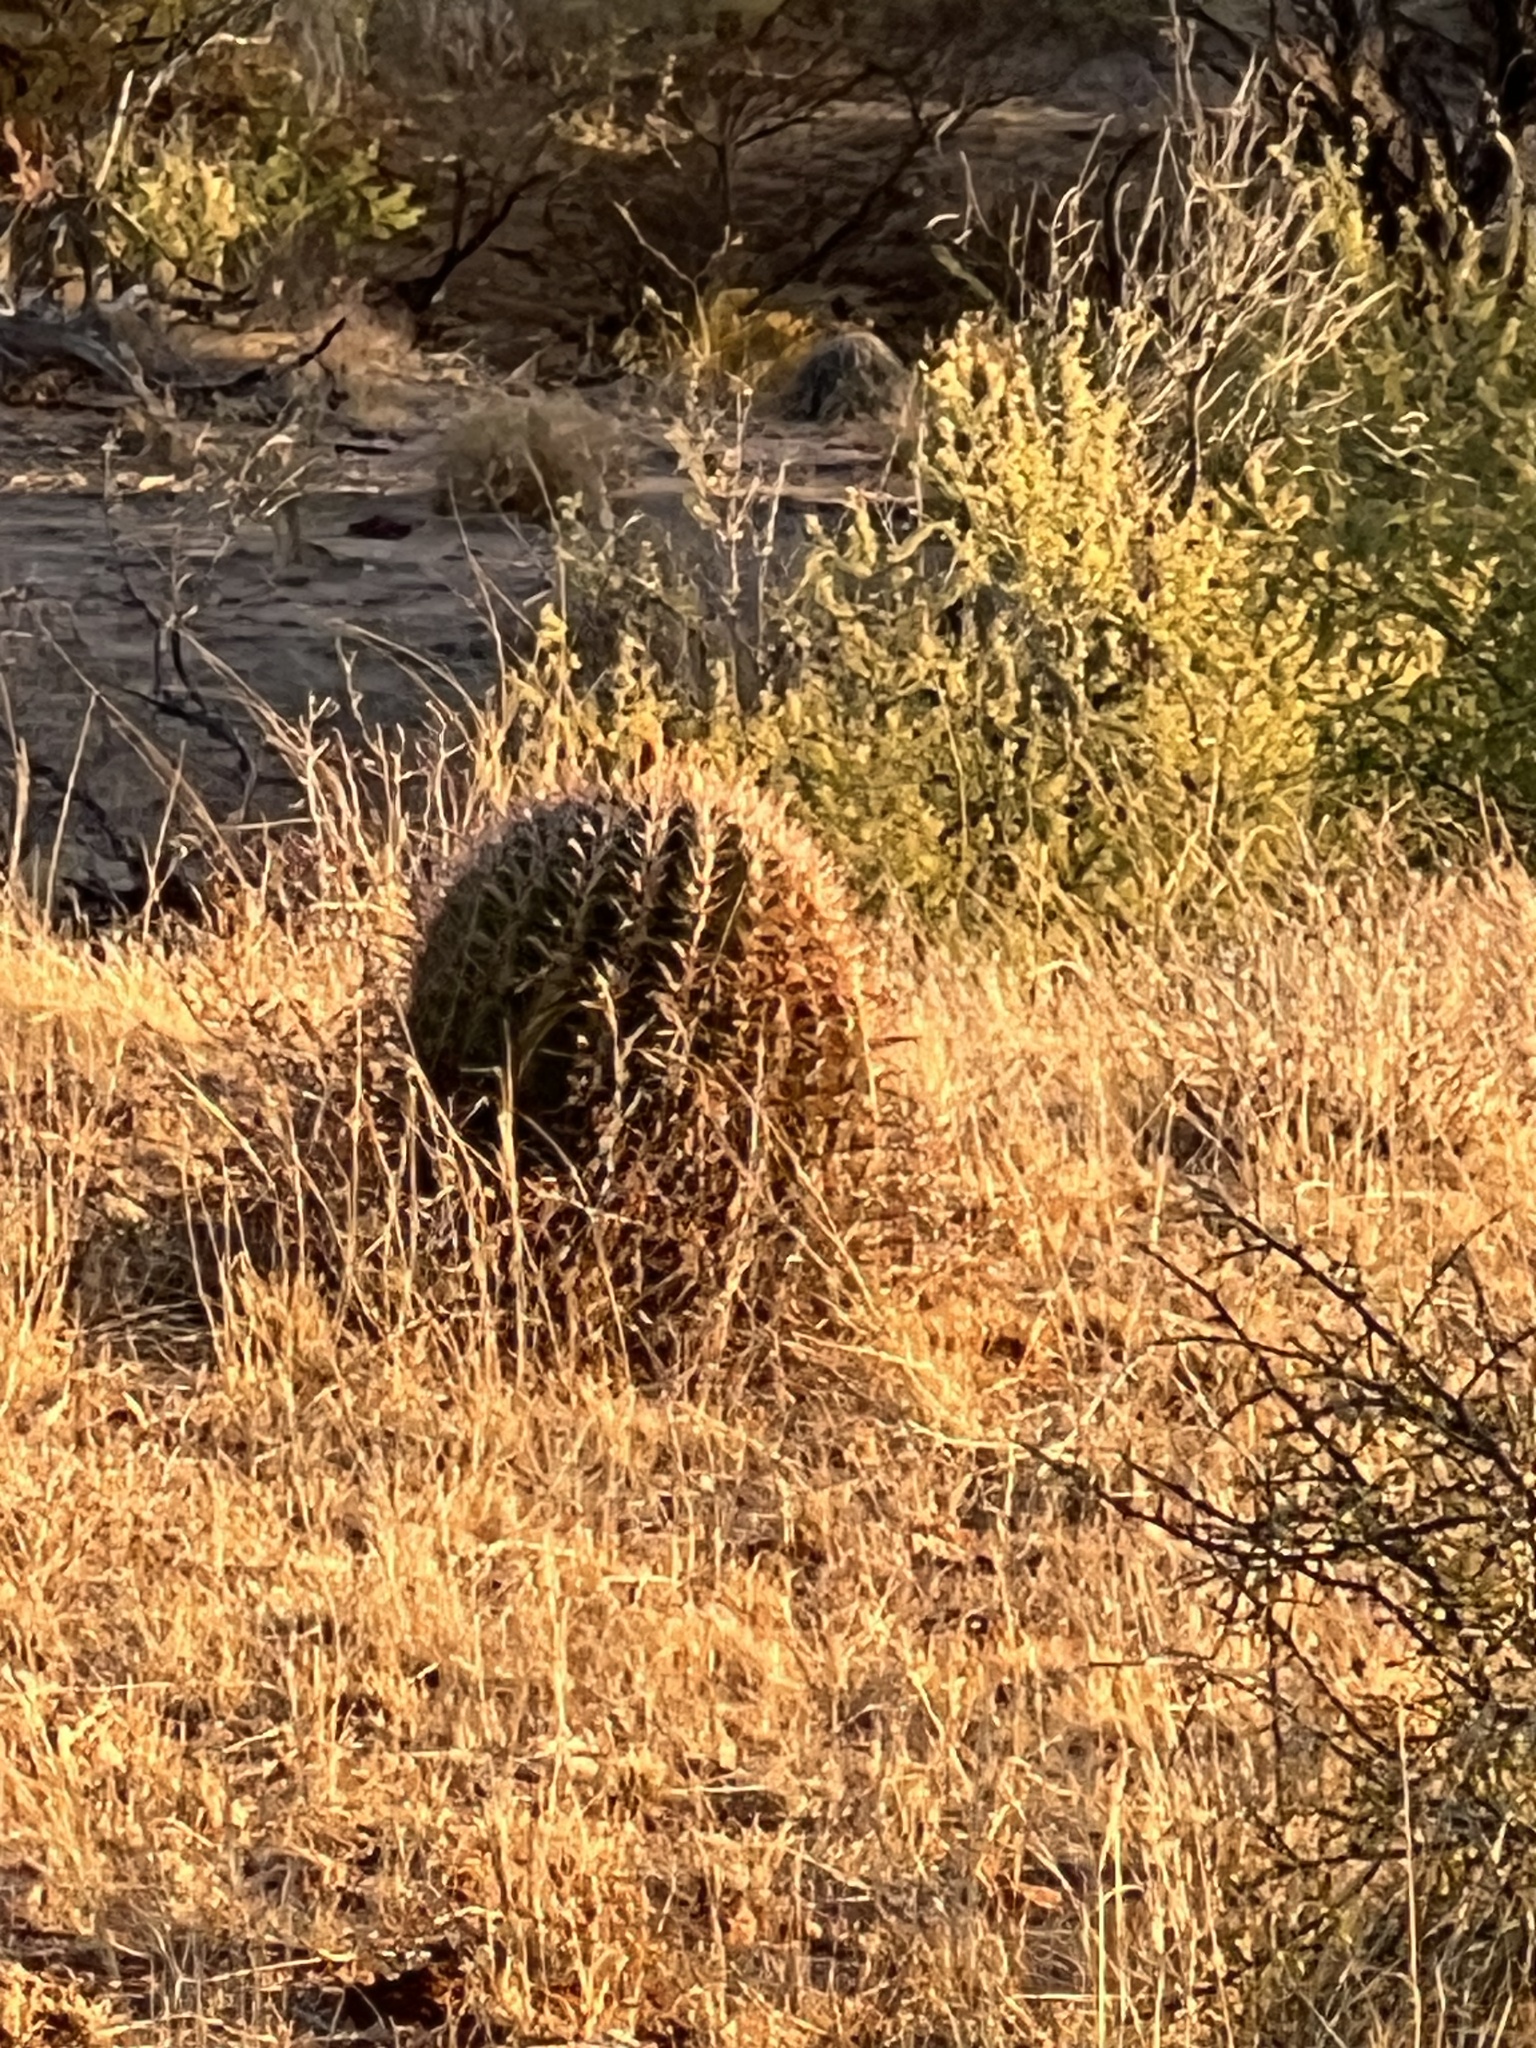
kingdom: Plantae
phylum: Tracheophyta
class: Magnoliopsida
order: Caryophyllales
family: Cactaceae
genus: Ferocactus
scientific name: Ferocactus wislizeni
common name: Candy barrel cactus
